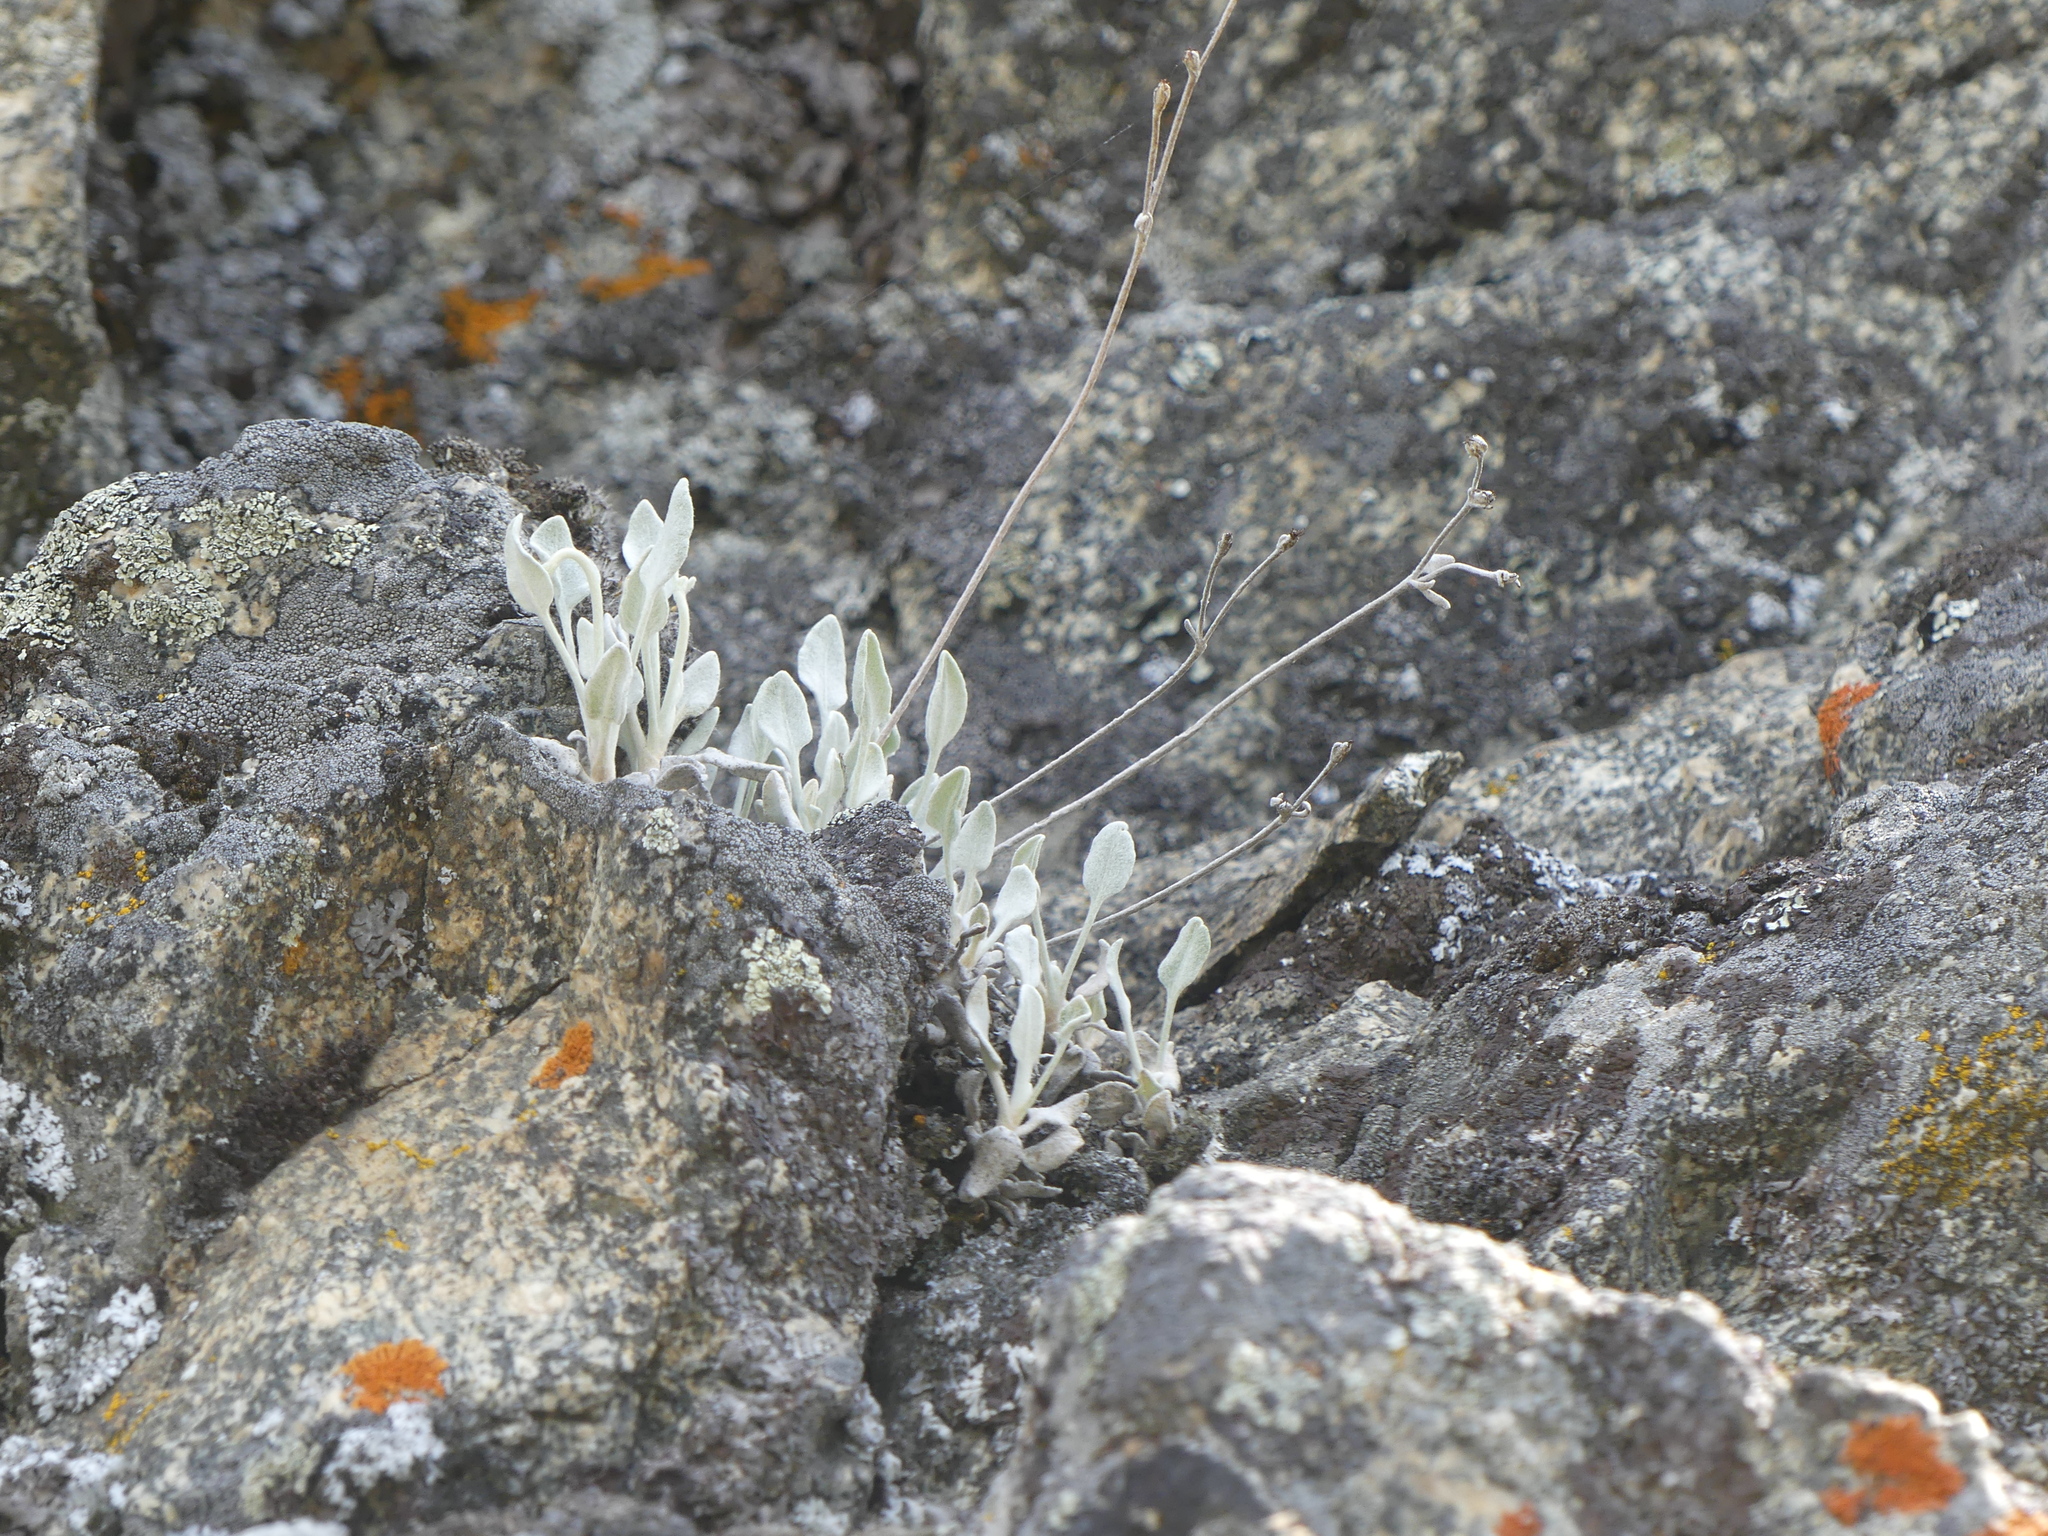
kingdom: Plantae
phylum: Tracheophyta
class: Magnoliopsida
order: Caryophyllales
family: Polygonaceae
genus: Eriogonum
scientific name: Eriogonum niveum
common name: Snow wild buckwheat
